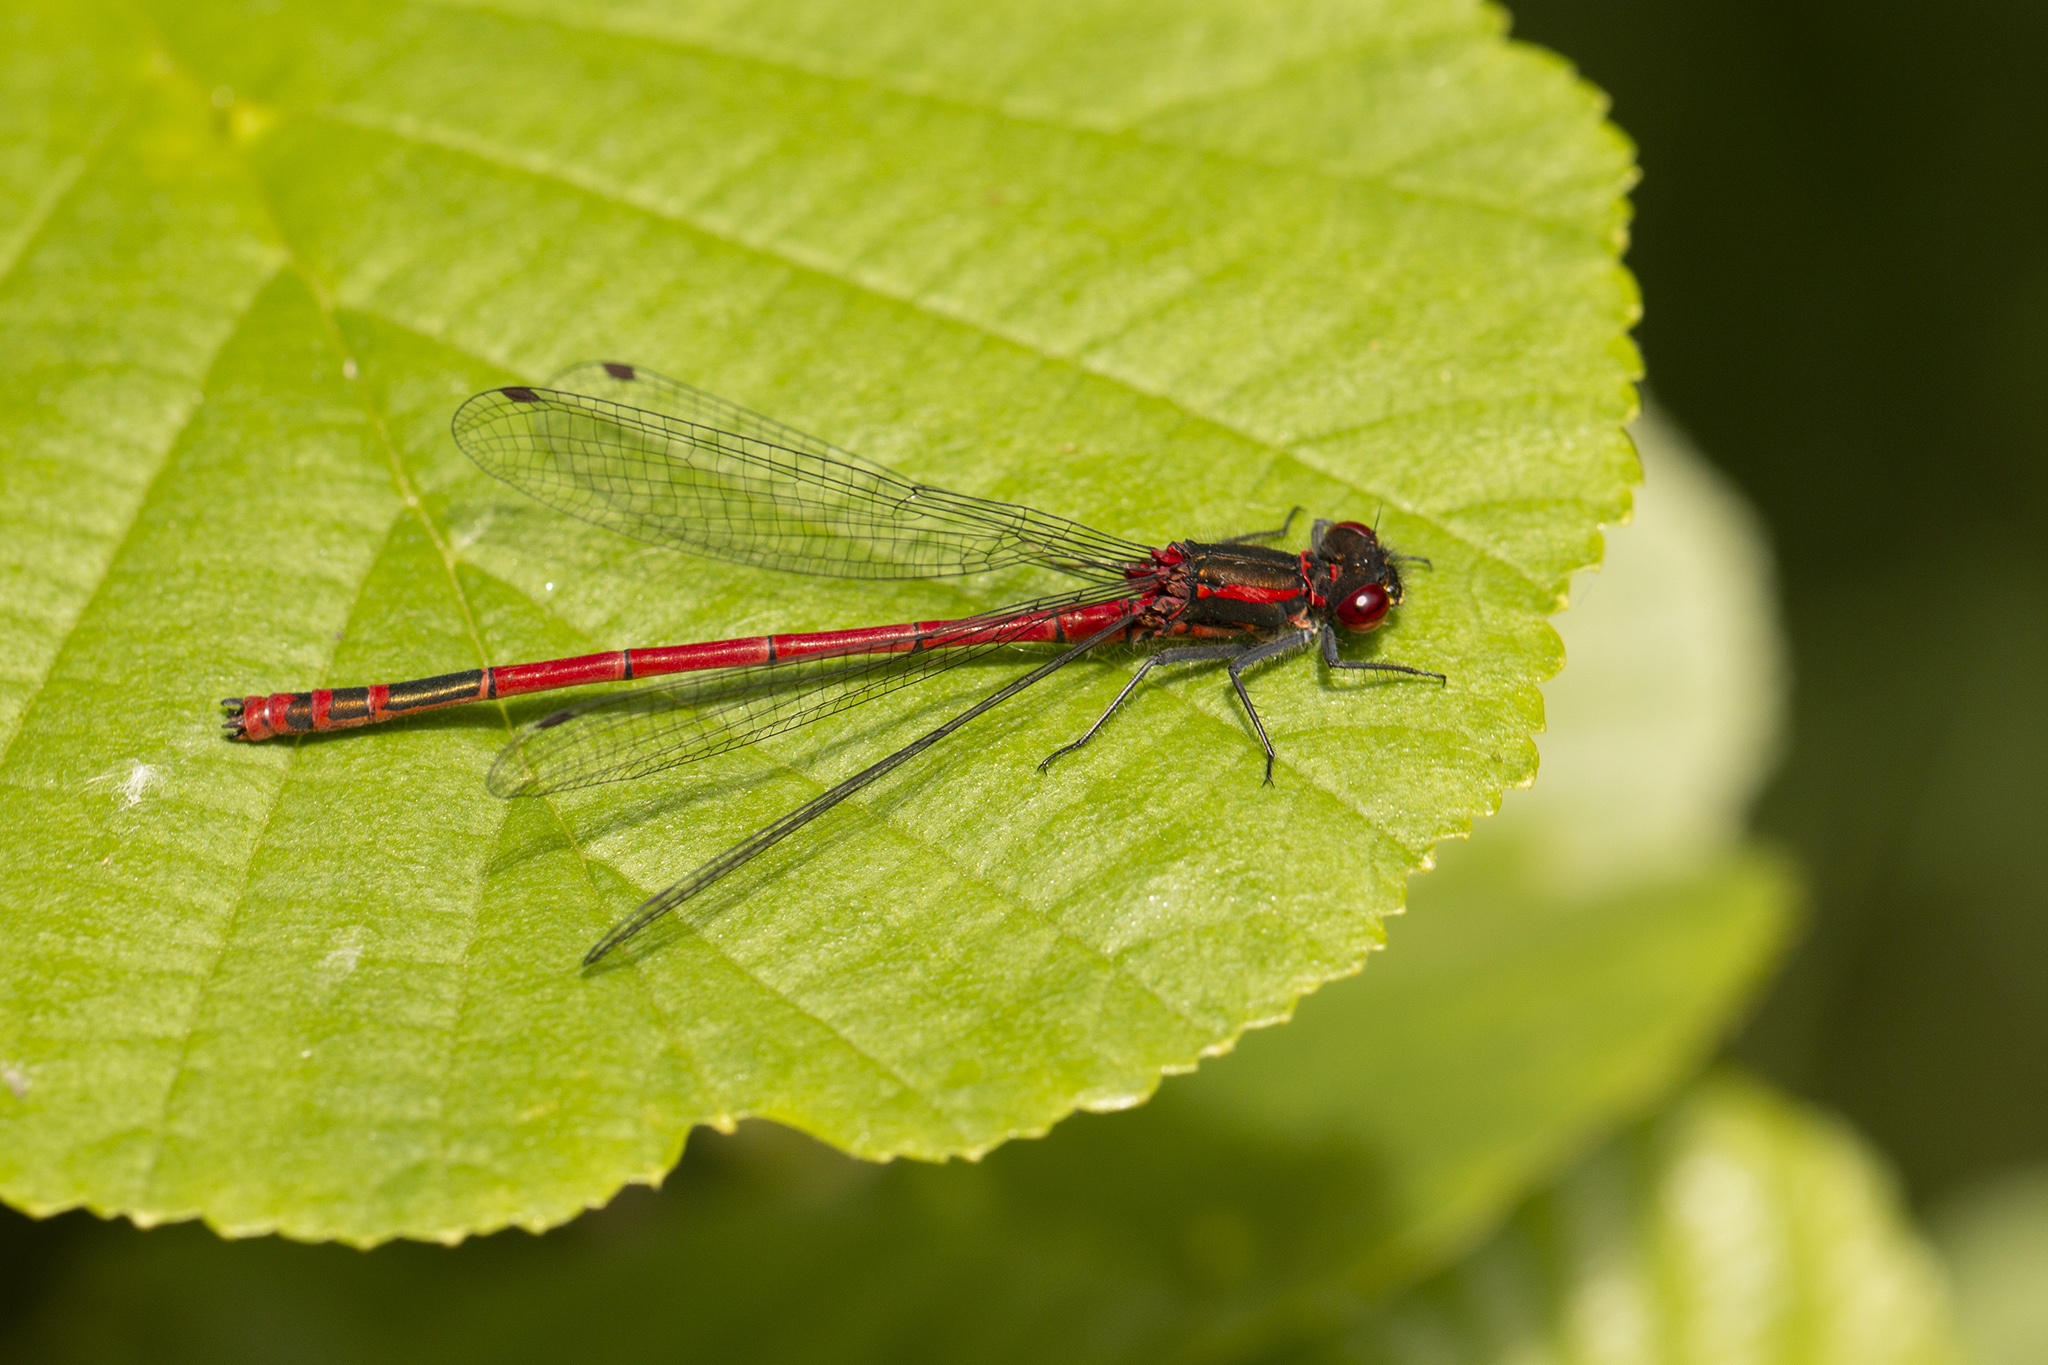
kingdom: Animalia
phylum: Arthropoda
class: Insecta
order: Odonata
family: Coenagrionidae
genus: Pyrrhosoma
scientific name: Pyrrhosoma nymphula
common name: Large red damsel
